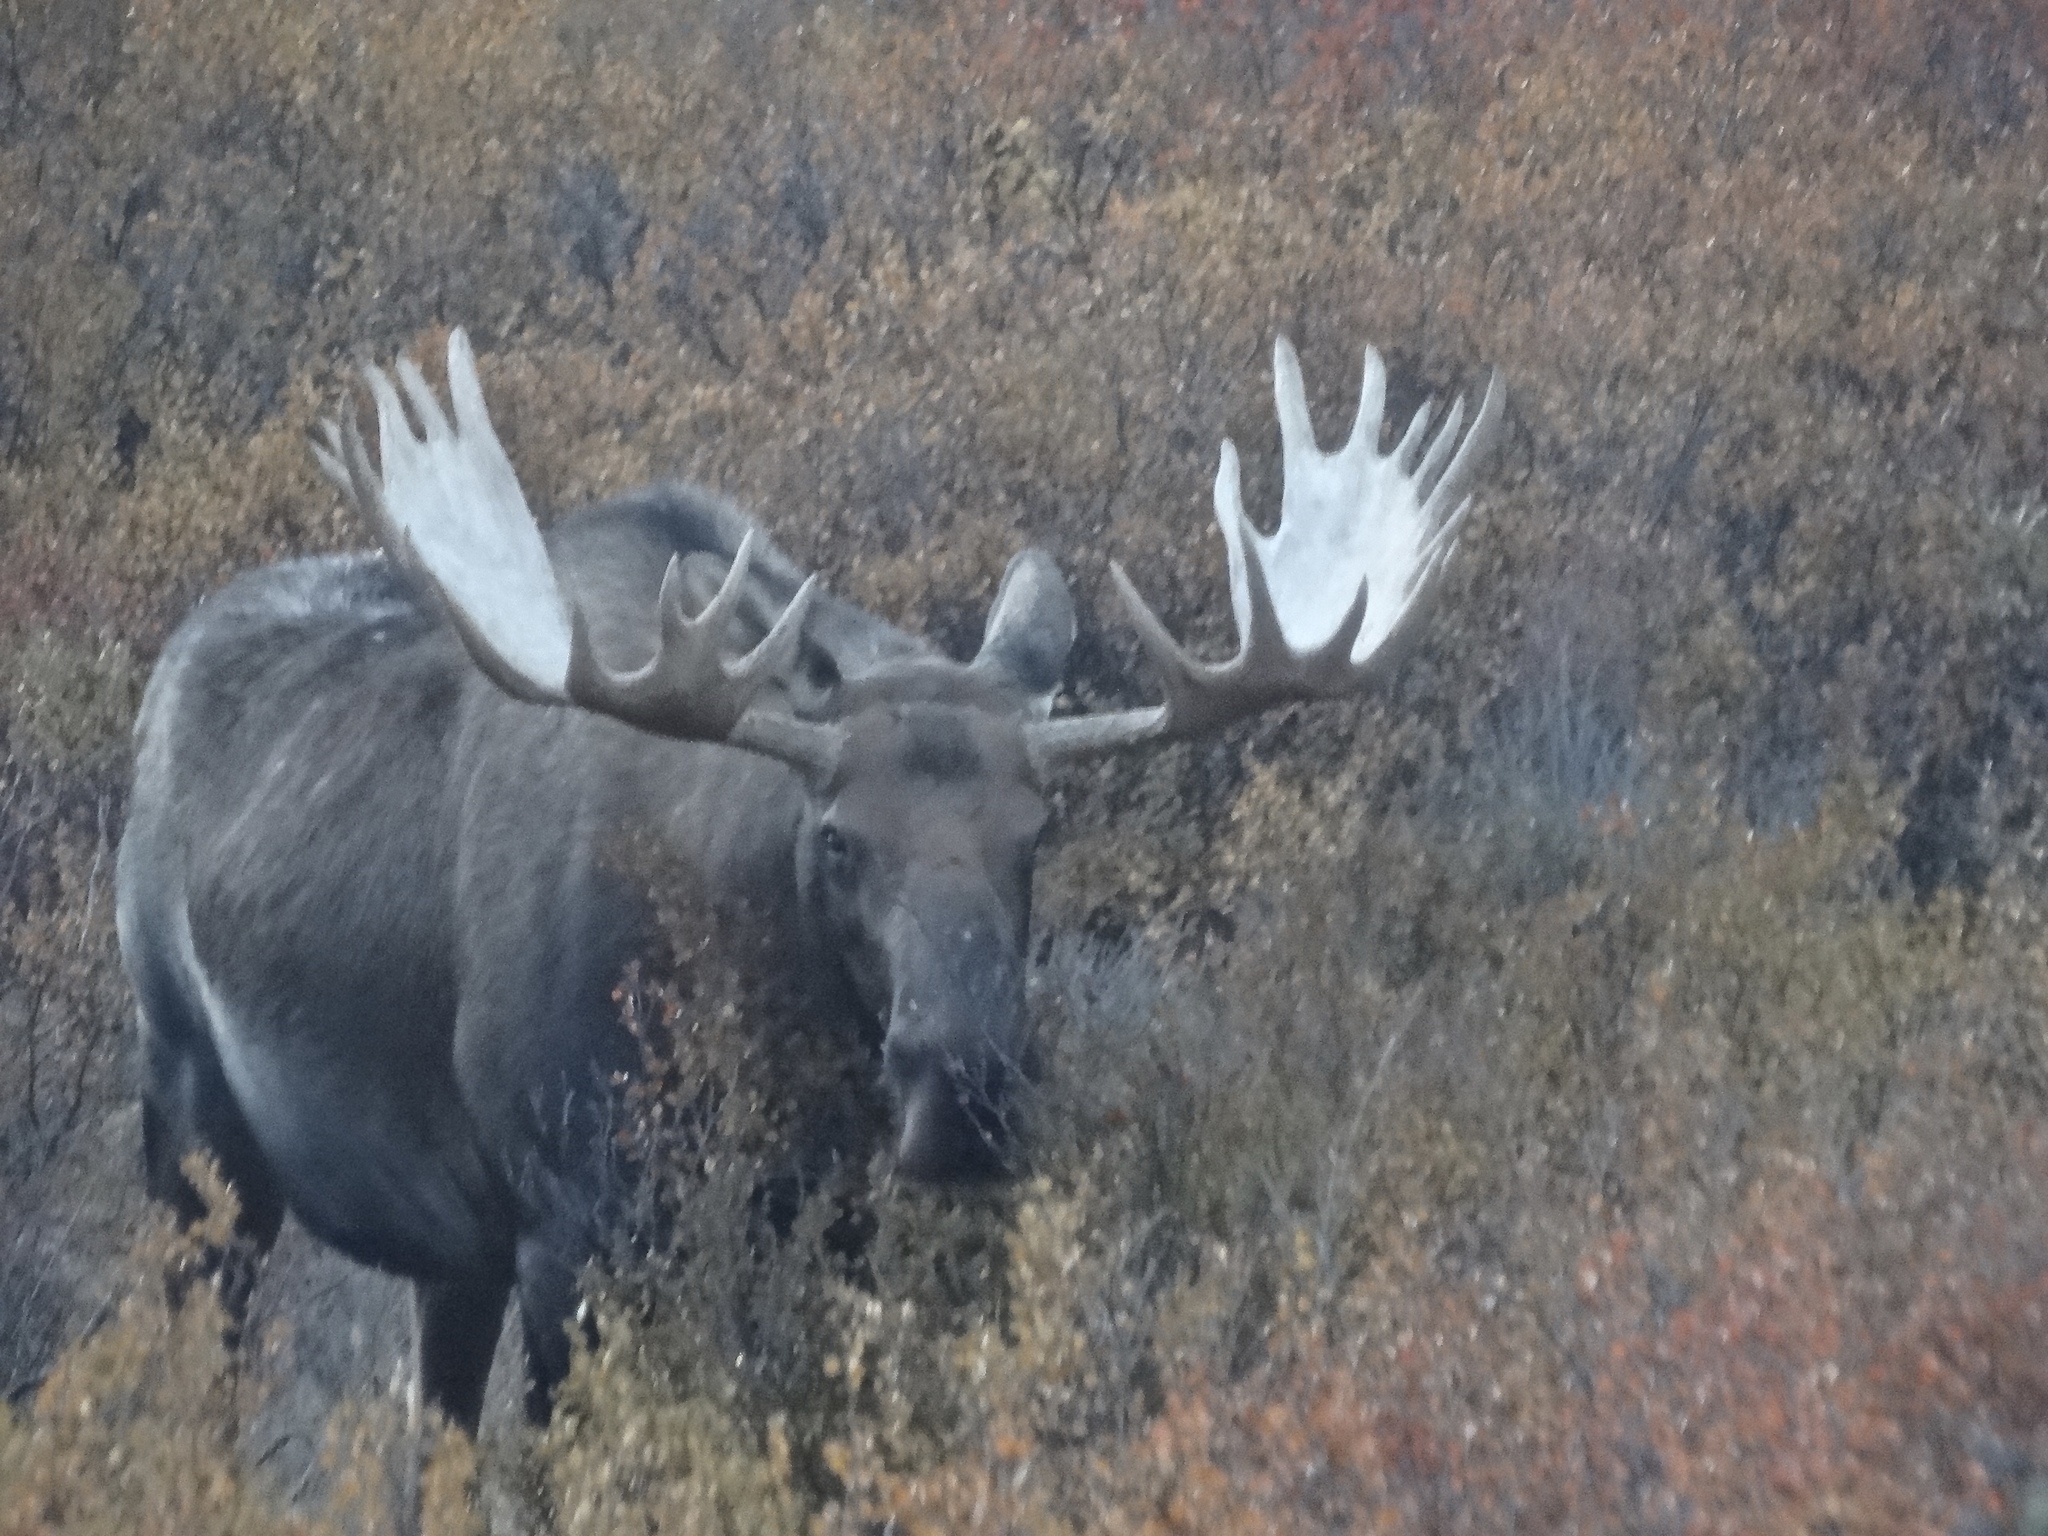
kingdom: Animalia
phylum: Chordata
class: Mammalia
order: Artiodactyla
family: Cervidae
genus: Alces
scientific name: Alces alces
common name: Moose
